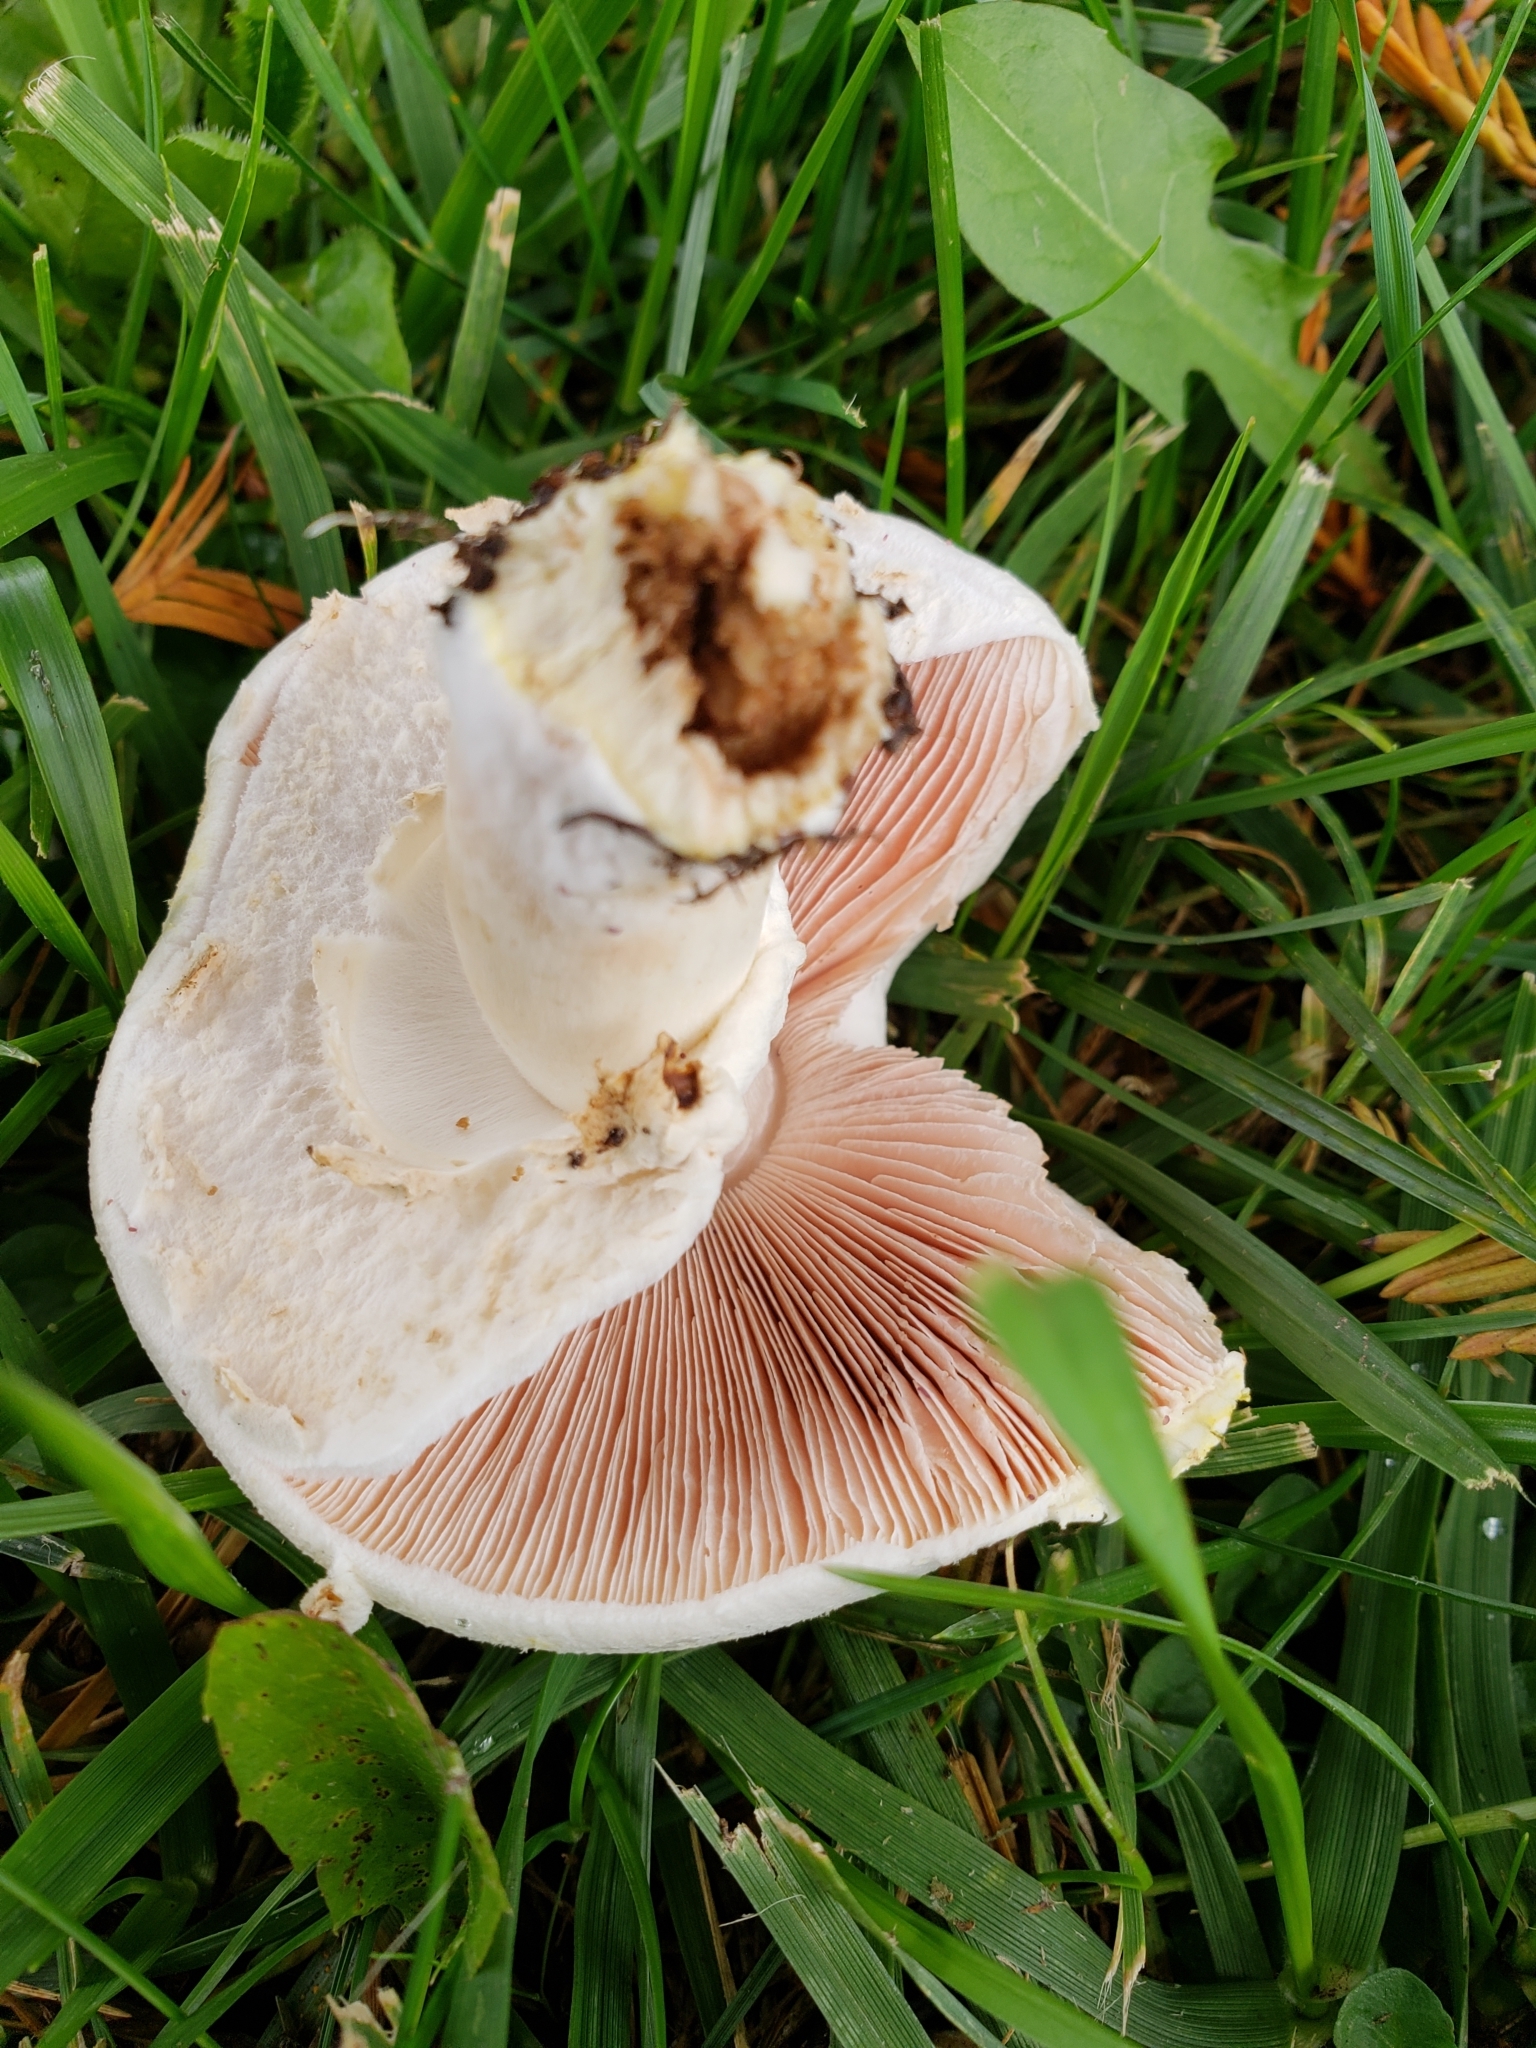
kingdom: Fungi
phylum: Basidiomycota
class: Agaricomycetes
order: Agaricales
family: Agaricaceae
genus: Agaricus
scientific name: Agaricus xanthodermus
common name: Yellow stainer
